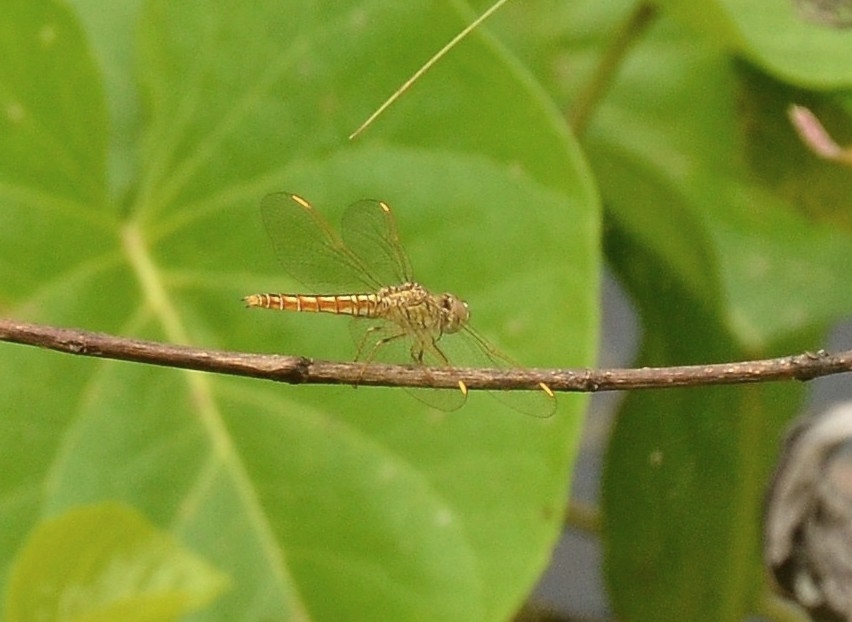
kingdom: Animalia
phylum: Arthropoda
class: Insecta
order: Odonata
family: Libellulidae
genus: Brachythemis
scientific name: Brachythemis contaminata
